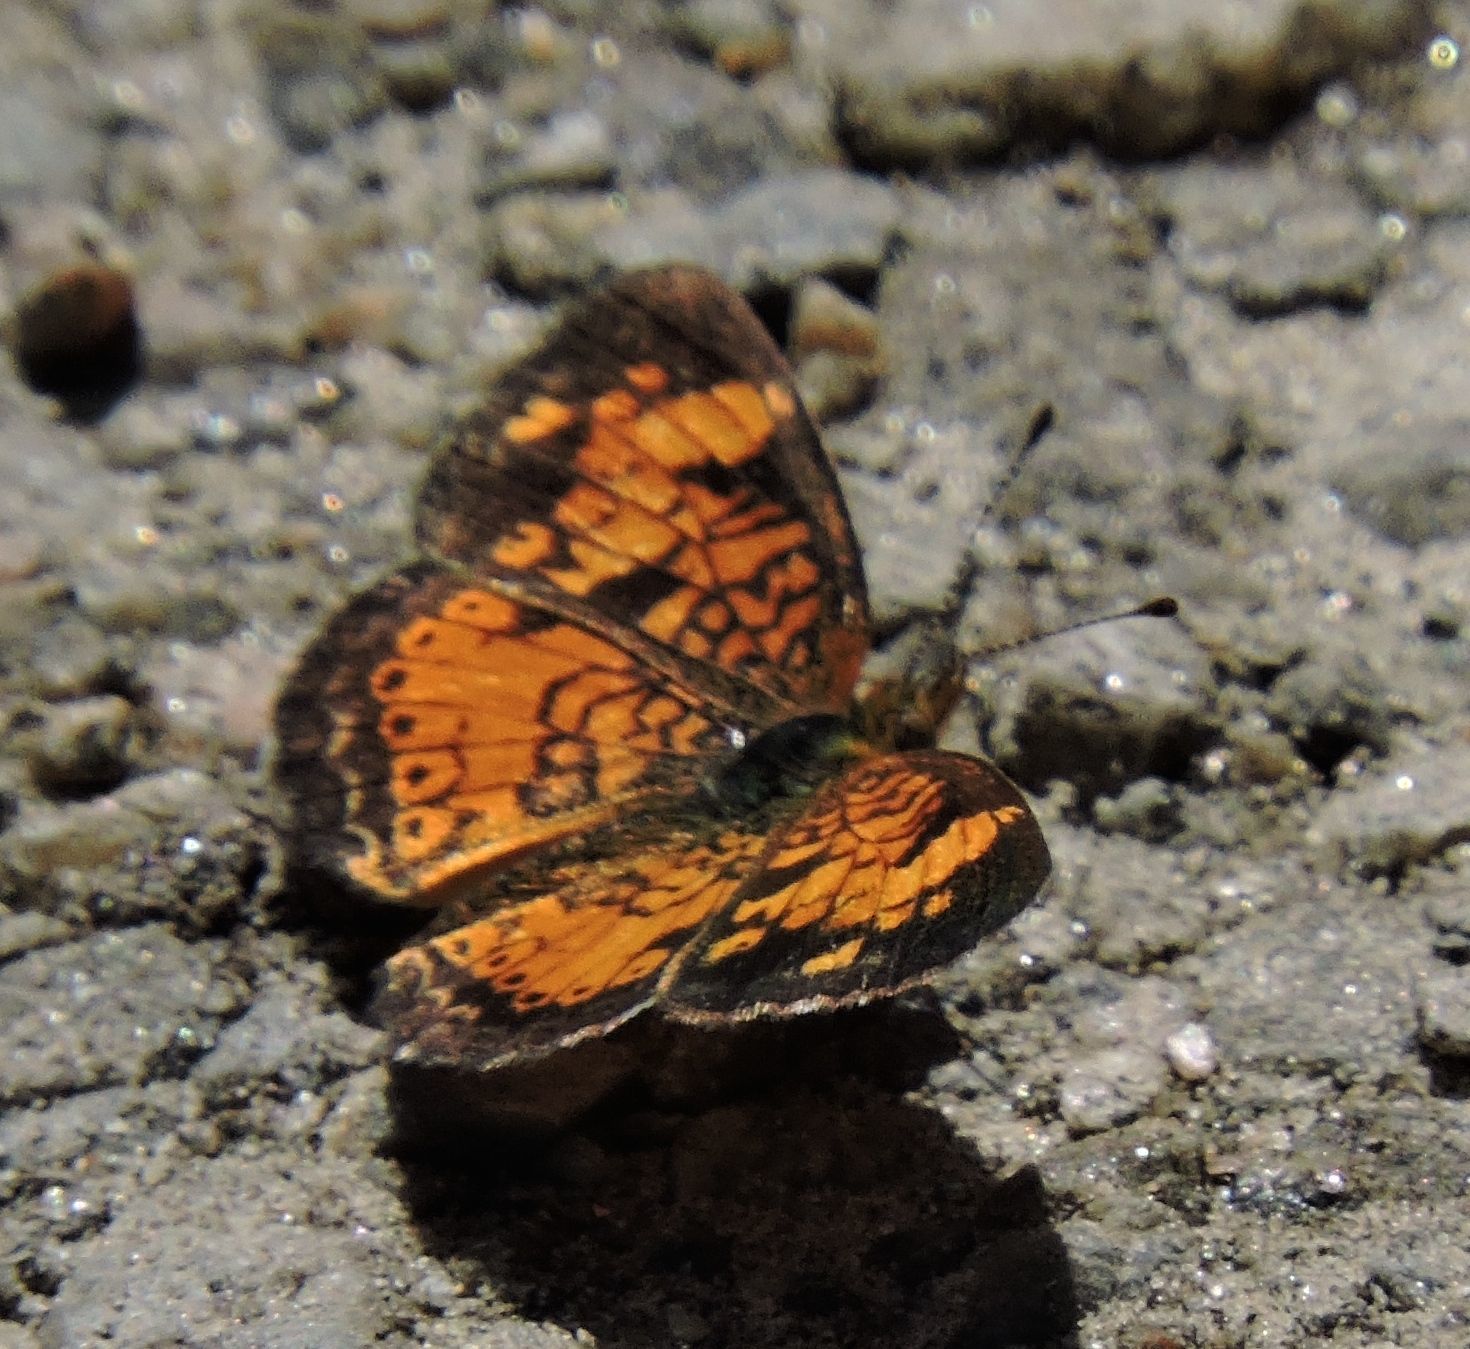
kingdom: Animalia
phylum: Arthropoda
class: Insecta
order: Lepidoptera
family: Nymphalidae
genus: Phyciodes
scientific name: Phyciodes tharos
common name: Pearl crescent
